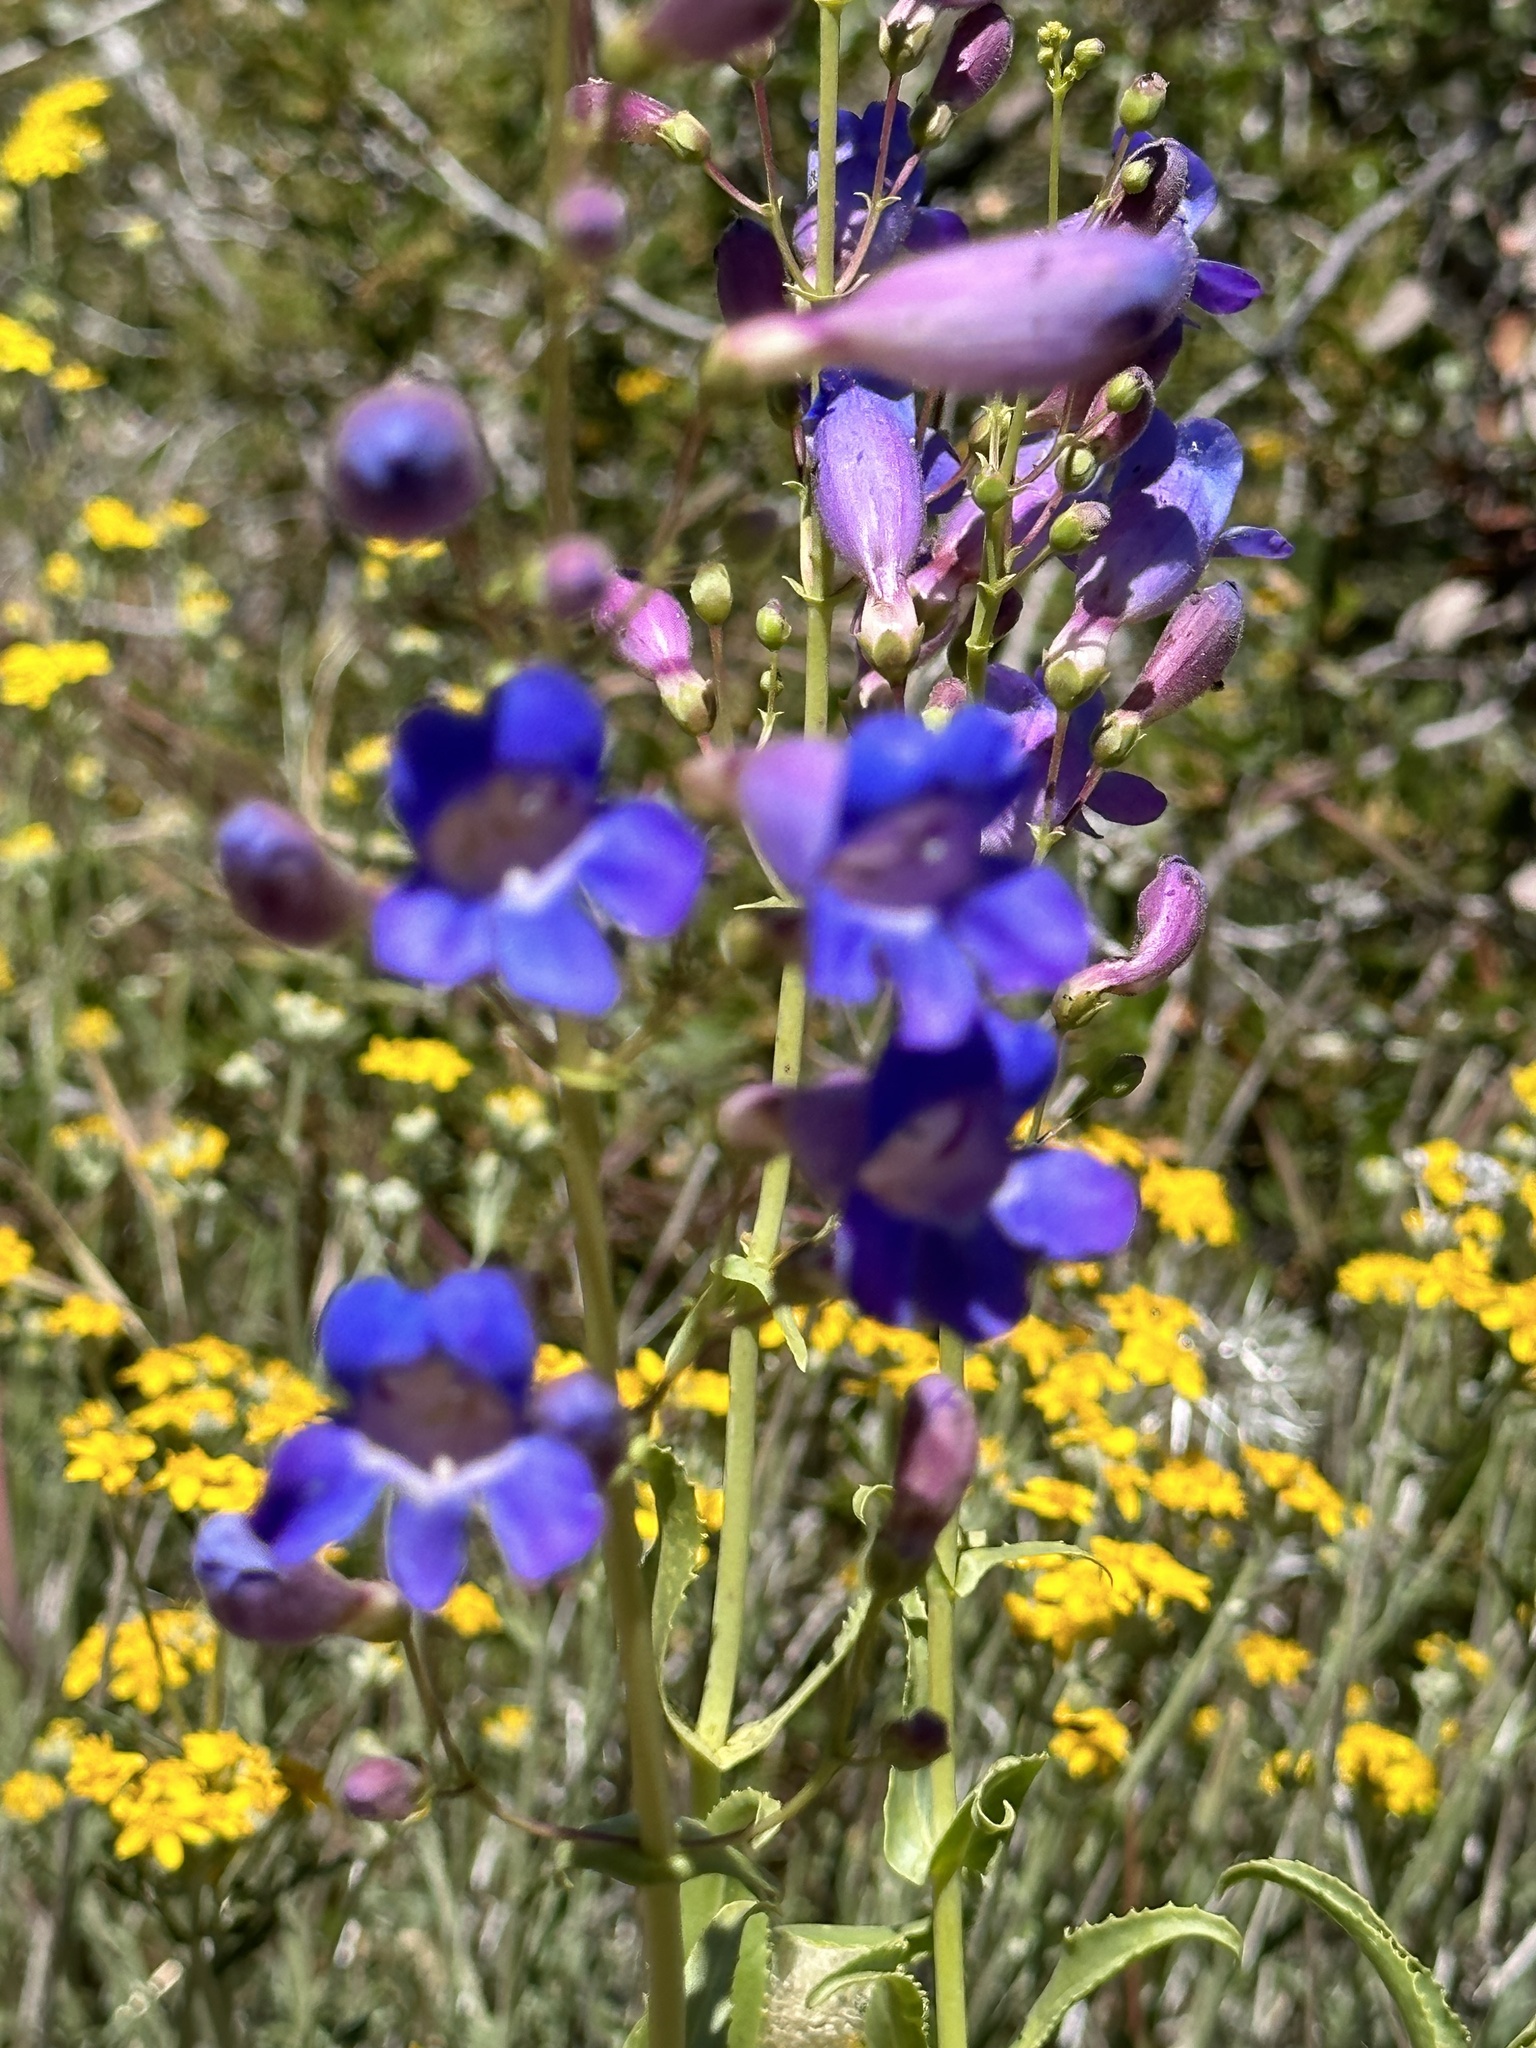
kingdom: Plantae
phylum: Tracheophyta
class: Magnoliopsida
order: Lamiales
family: Plantaginaceae
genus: Penstemon
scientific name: Penstemon spectabilis
